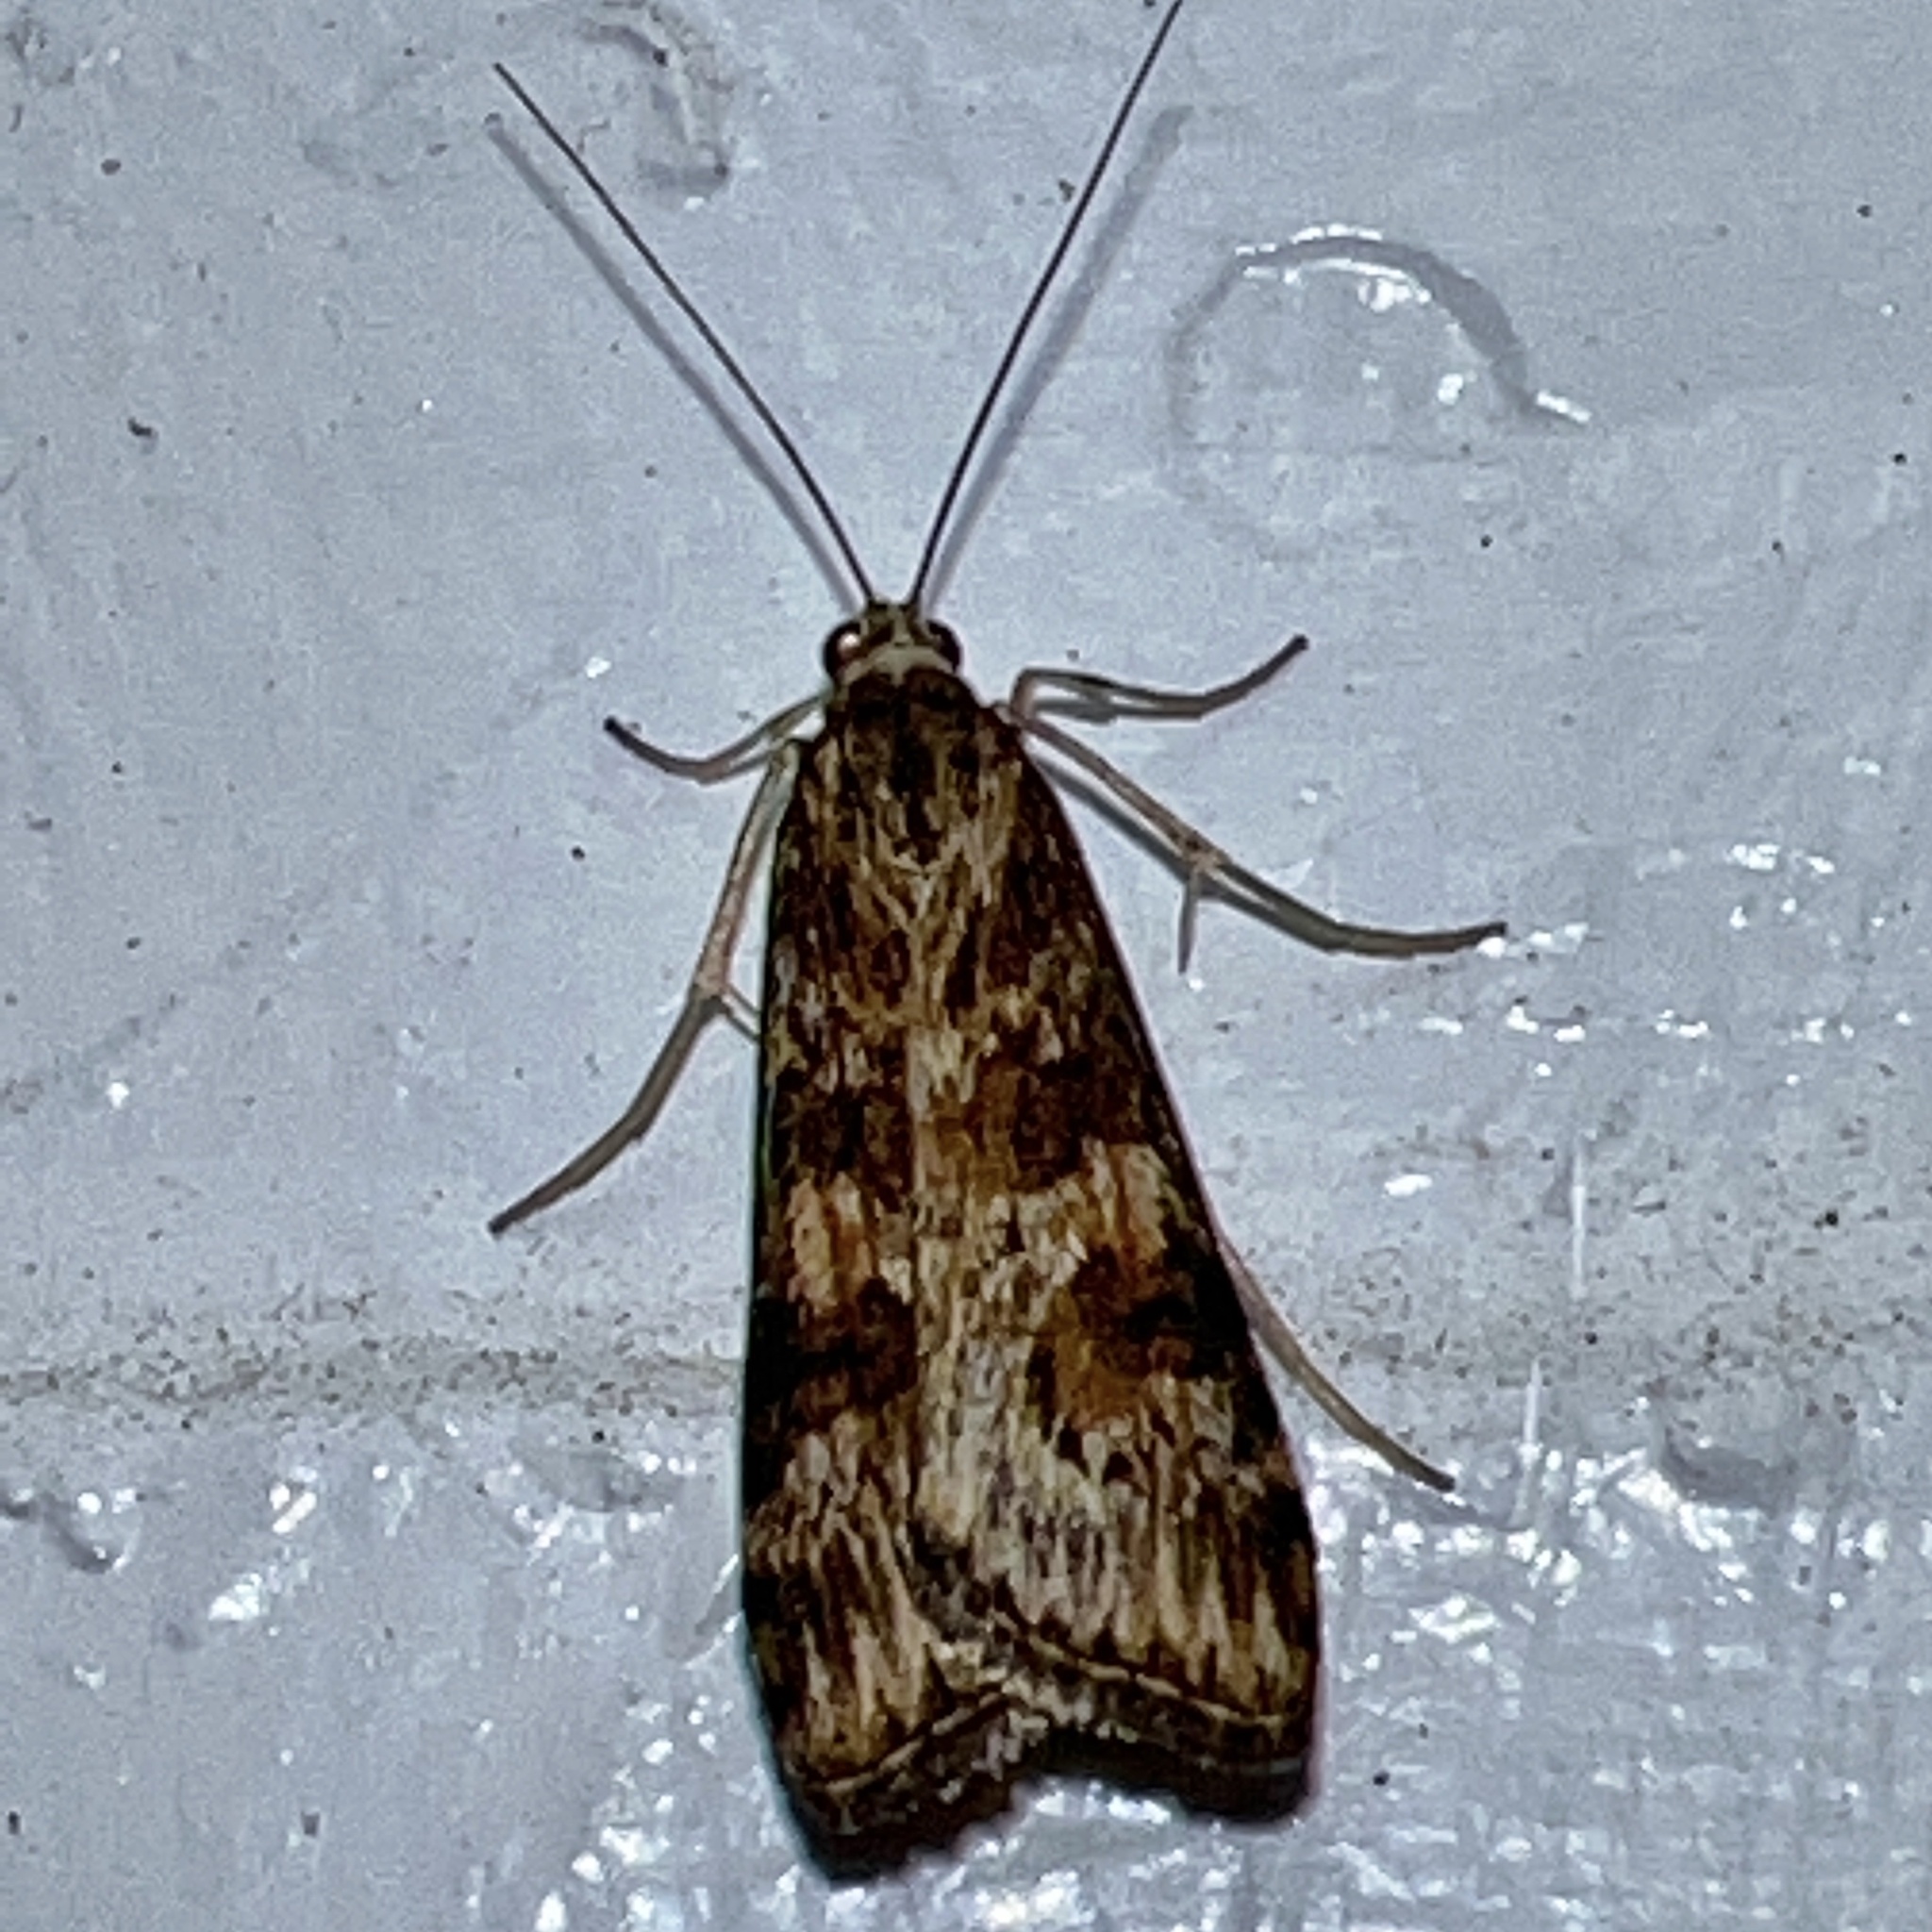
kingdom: Animalia
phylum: Arthropoda
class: Insecta
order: Lepidoptera
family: Crambidae
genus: Nomophila
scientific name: Nomophila nearctica
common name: American rush veneer
